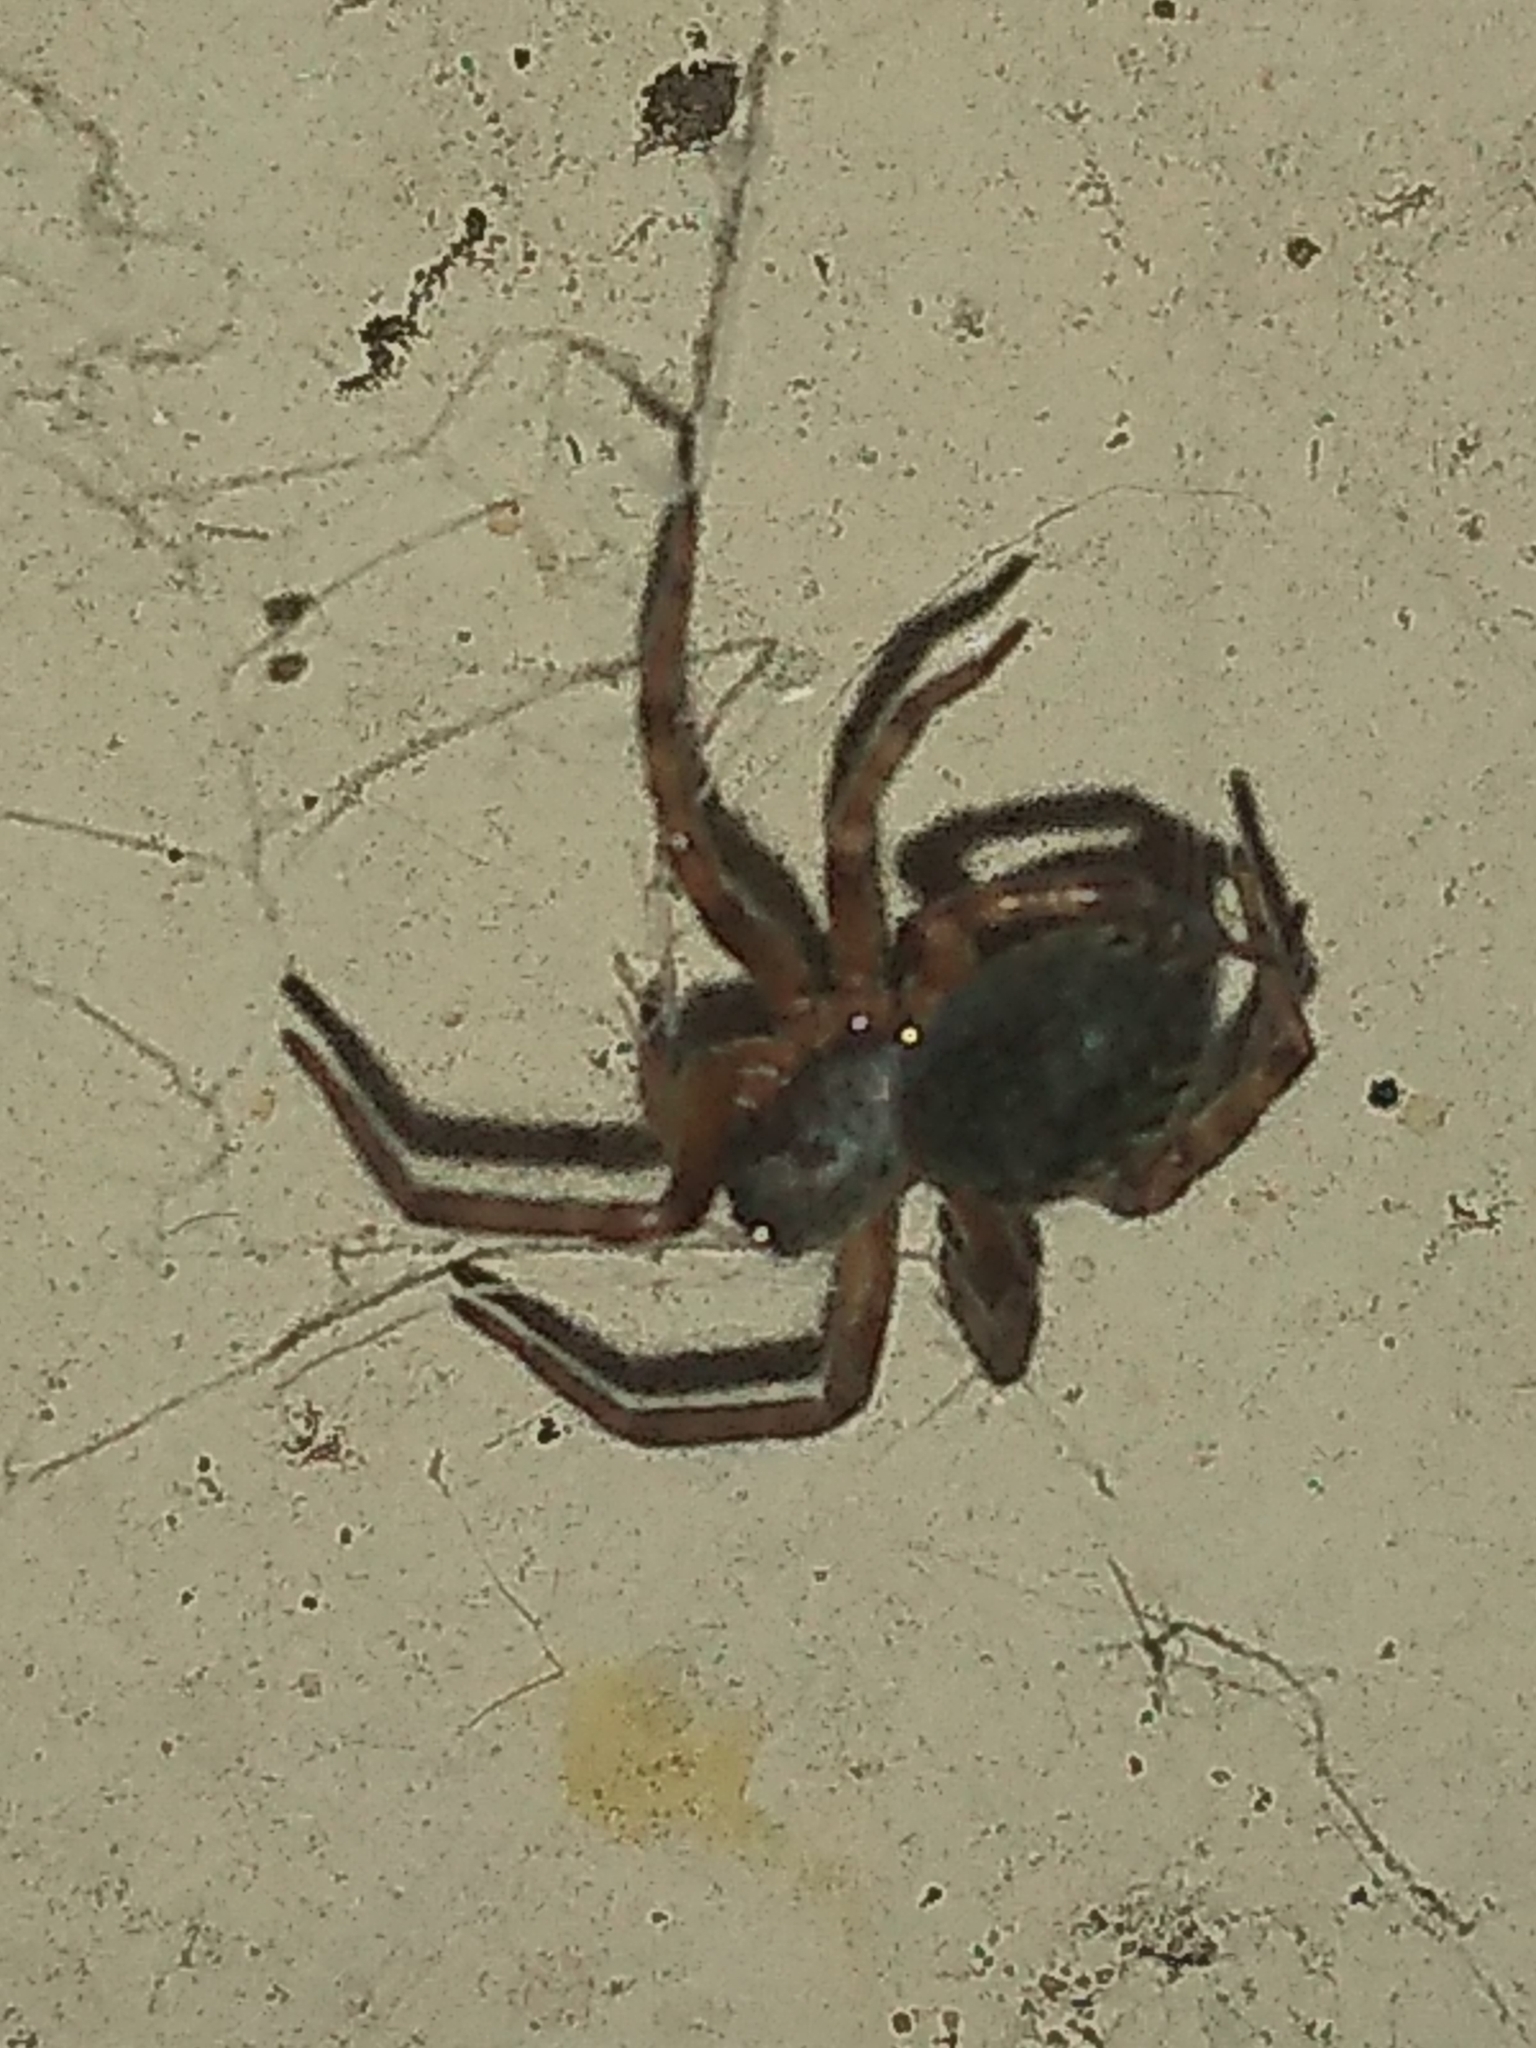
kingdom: Animalia
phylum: Arthropoda
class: Arachnida
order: Araneae
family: Desidae
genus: Badumna
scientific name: Badumna longinqua
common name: Gray house spider
